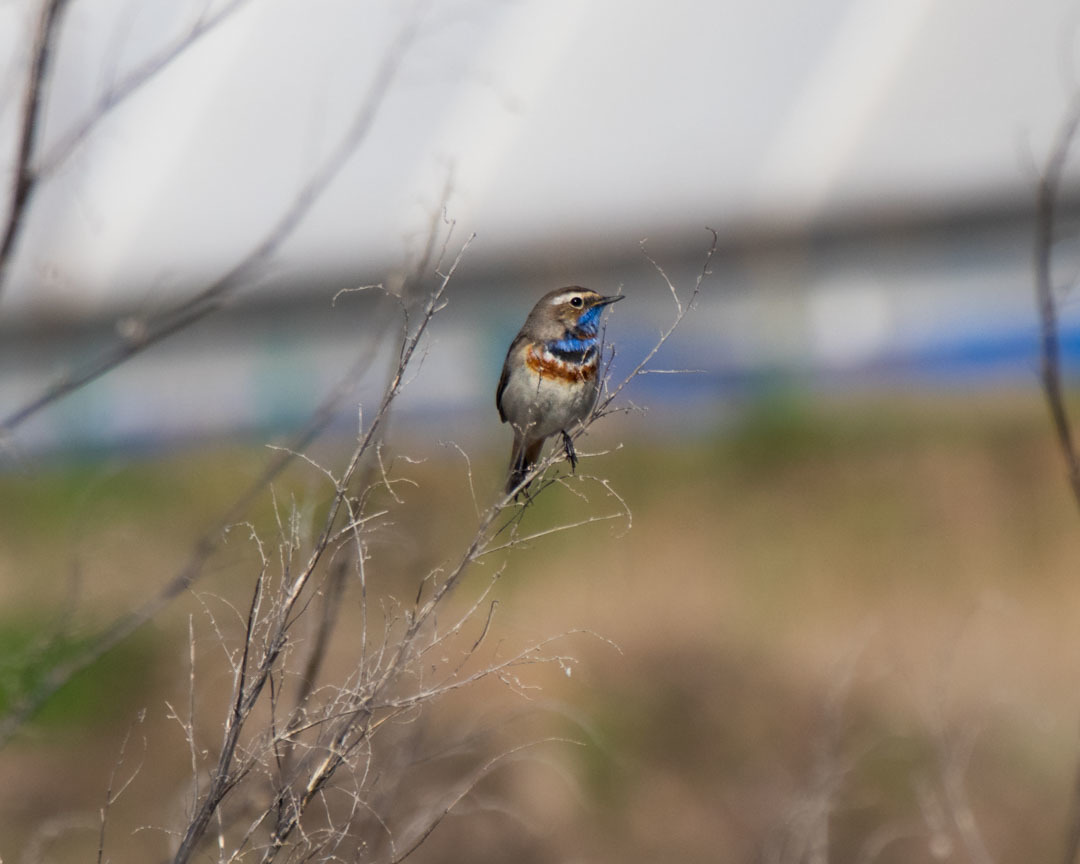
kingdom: Animalia
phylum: Chordata
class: Aves
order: Passeriformes
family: Muscicapidae
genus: Luscinia
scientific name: Luscinia svecica
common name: Bluethroat
